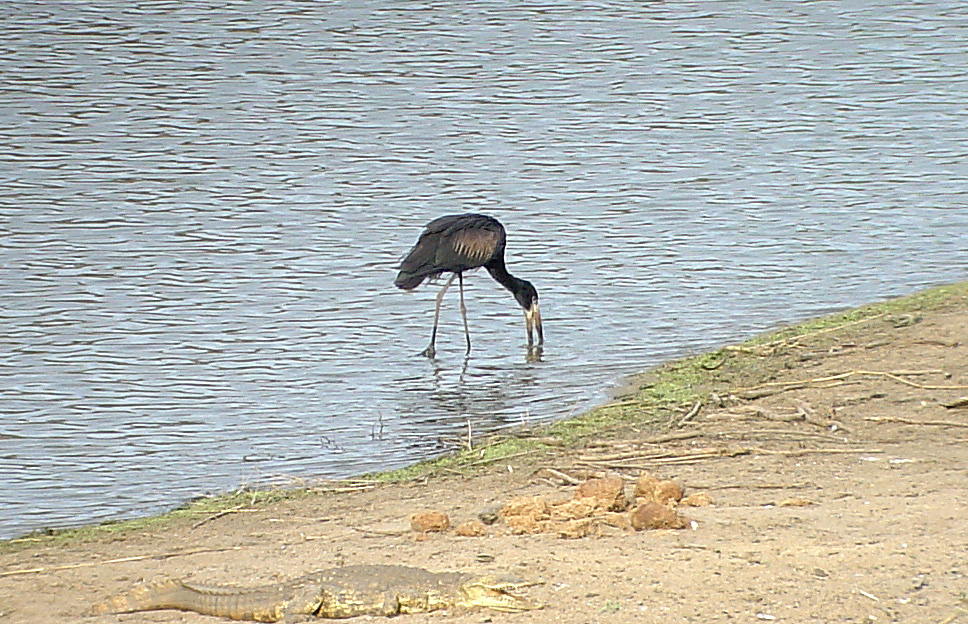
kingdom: Animalia
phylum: Chordata
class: Aves
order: Ciconiiformes
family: Ciconiidae
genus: Anastomus
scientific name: Anastomus lamelligerus
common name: African openbill
